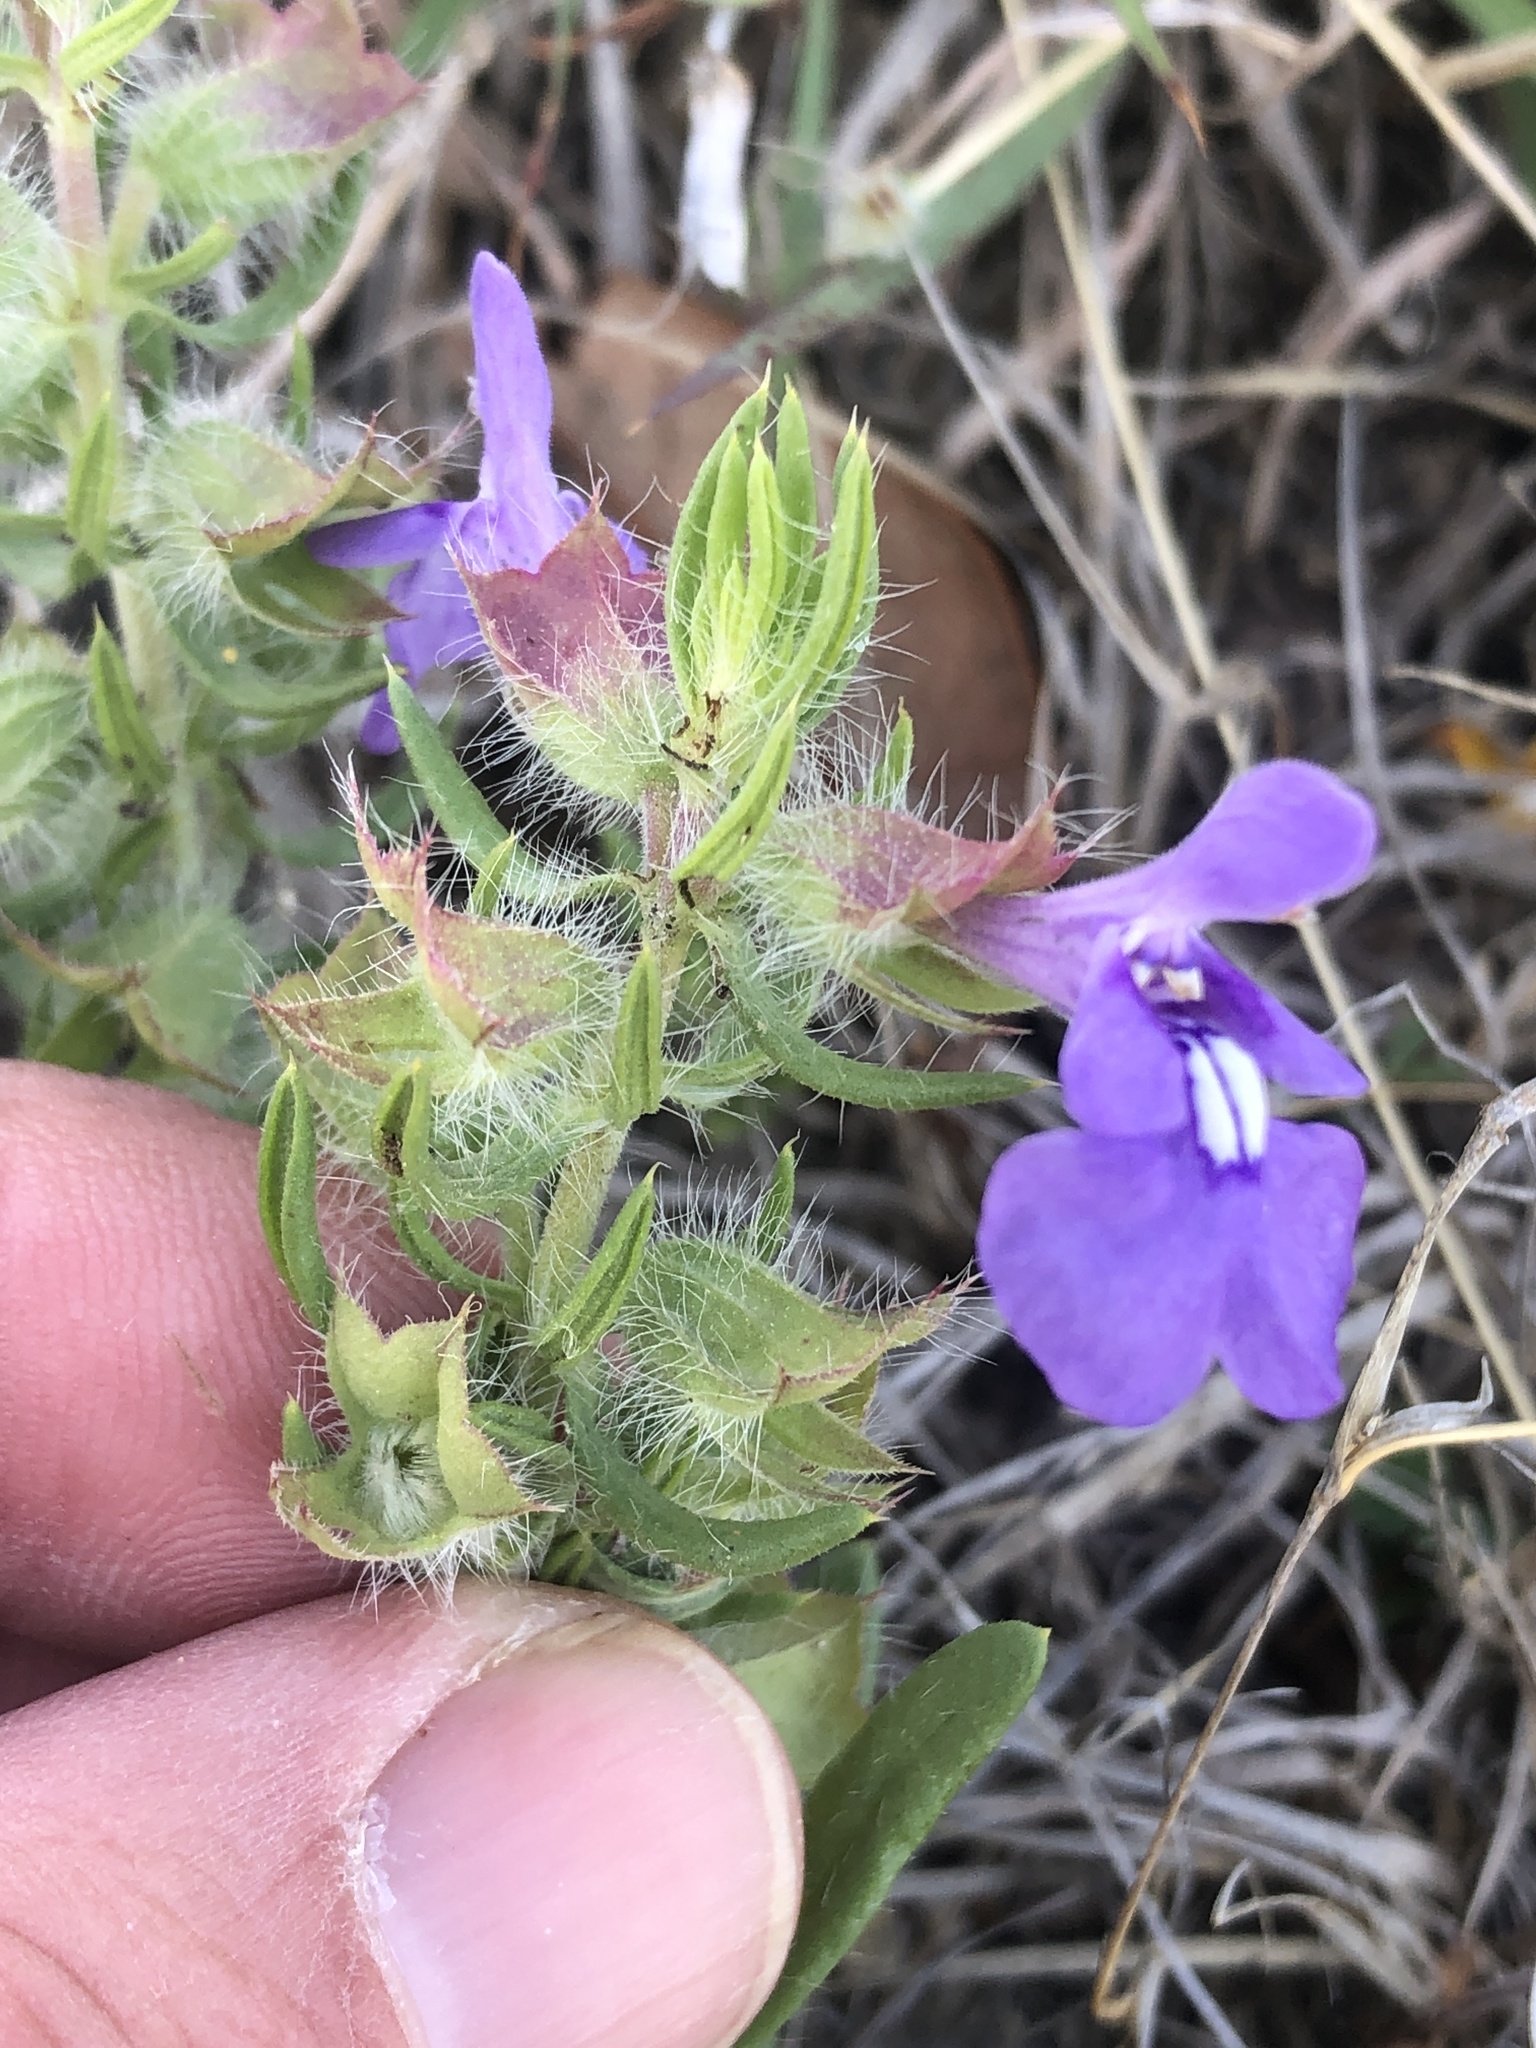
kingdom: Plantae
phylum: Tracheophyta
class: Magnoliopsida
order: Lamiales
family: Lamiaceae
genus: Salvia
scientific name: Salvia texana
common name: Texas sage
